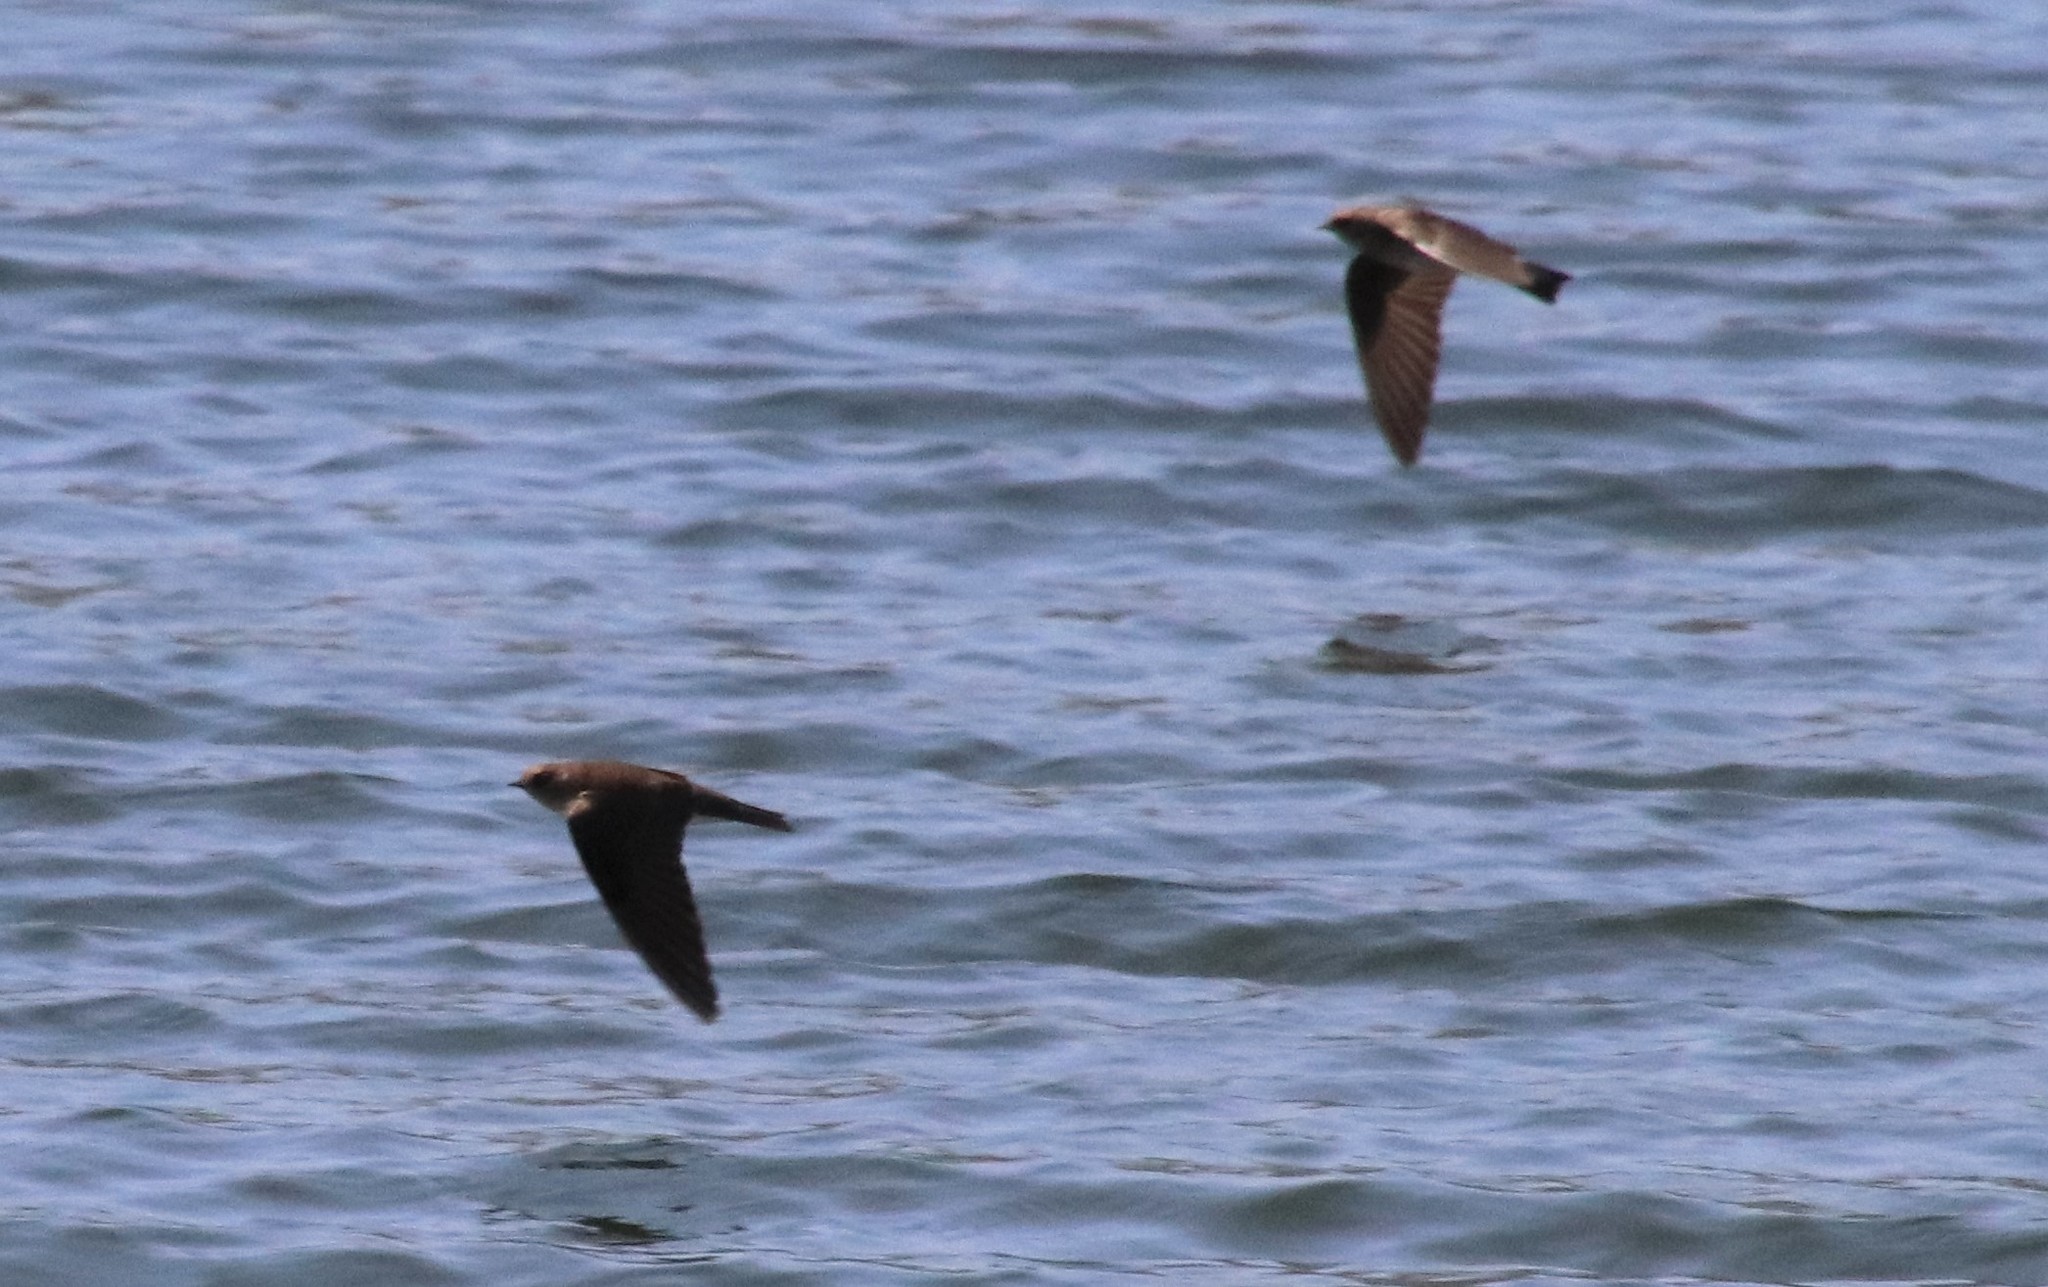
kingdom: Animalia
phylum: Chordata
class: Aves
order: Passeriformes
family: Hirundinidae
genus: Stelgidopteryx
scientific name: Stelgidopteryx serripennis
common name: Northern rough-winged swallow
